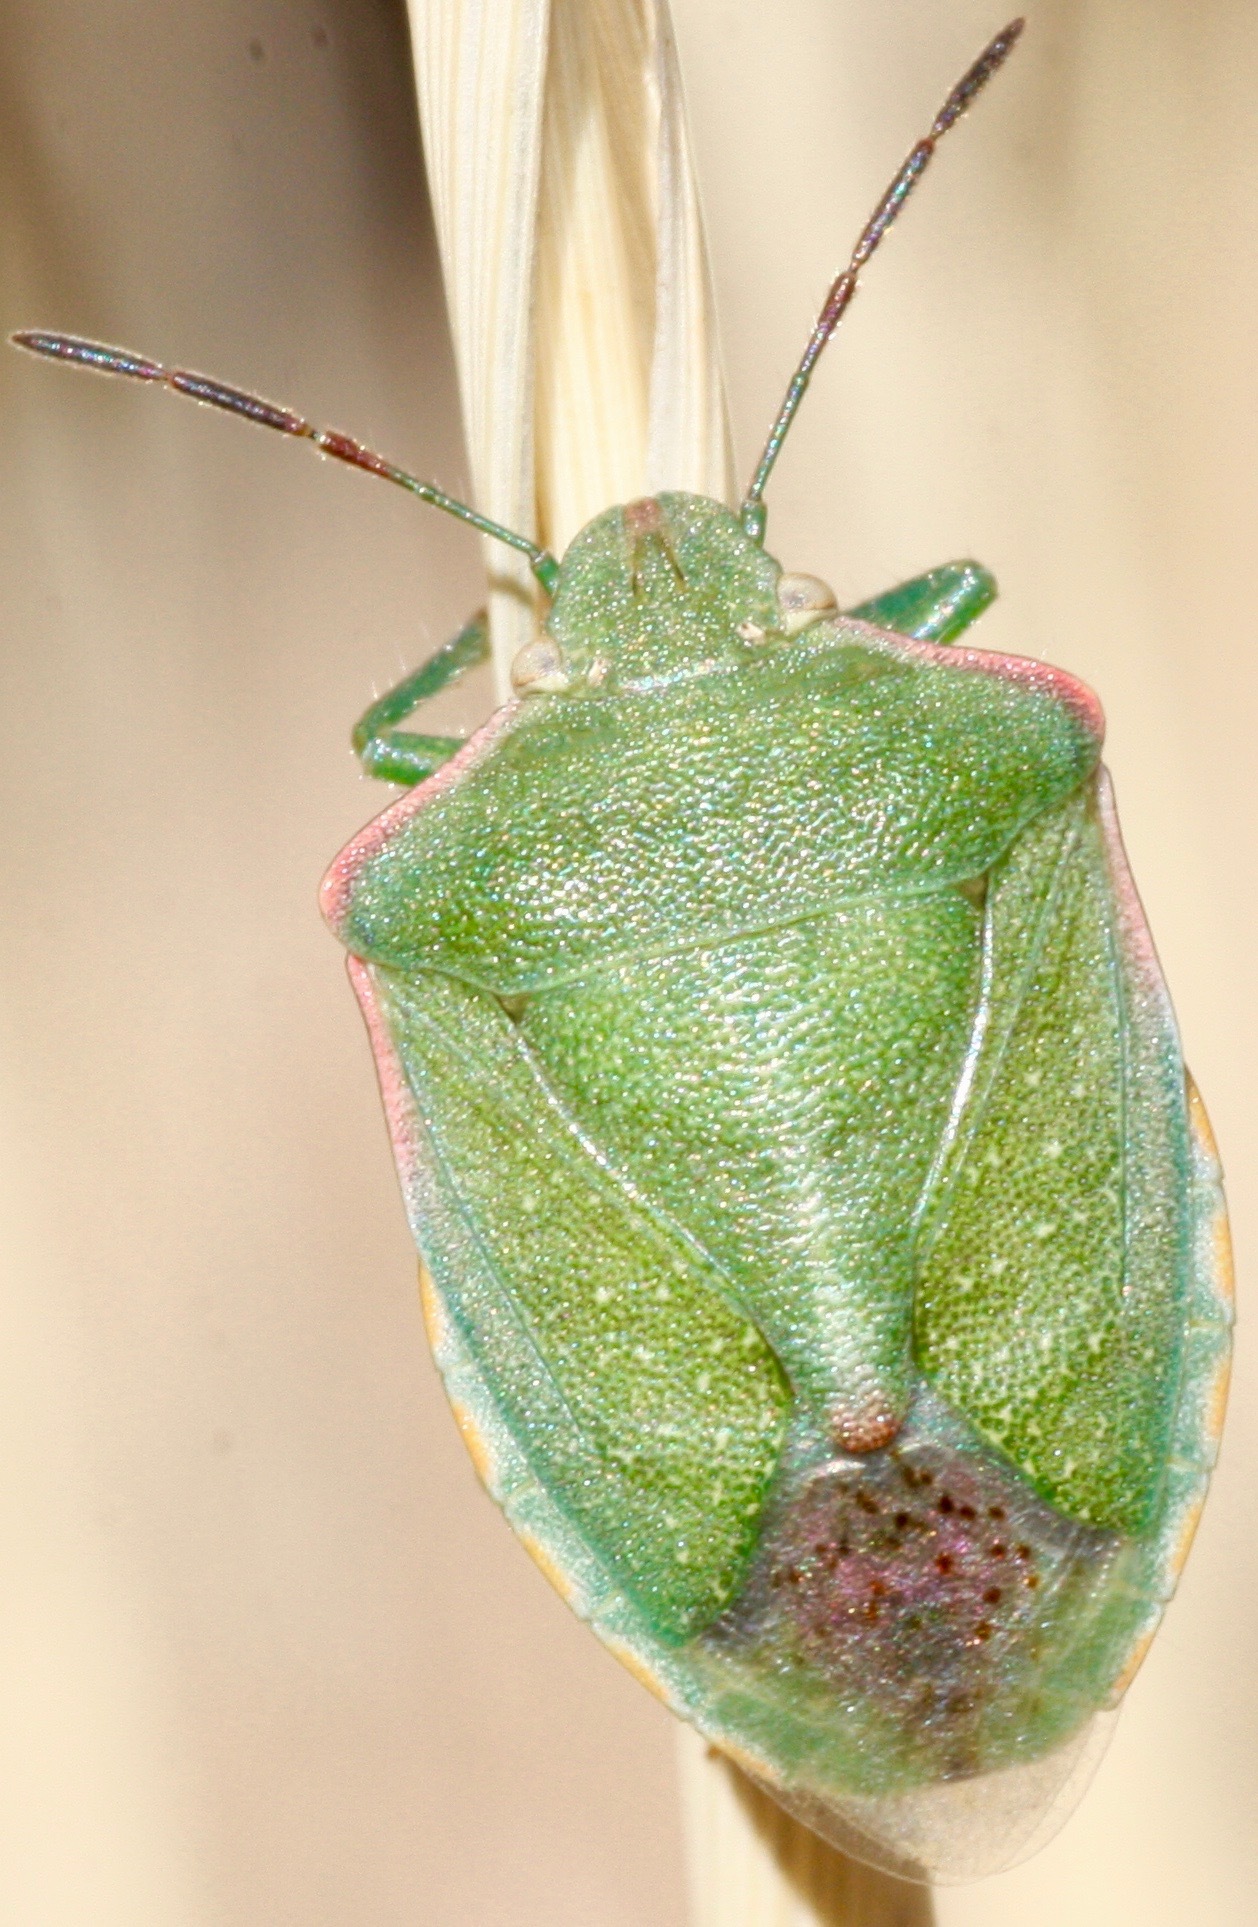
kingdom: Animalia
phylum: Arthropoda
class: Insecta
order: Hemiptera
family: Pentatomidae
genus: Thyanta
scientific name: Thyanta accerra
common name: Stink bug
